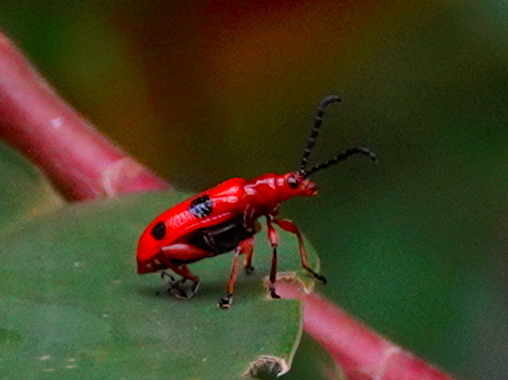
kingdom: Animalia
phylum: Arthropoda
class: Insecta
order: Coleoptera
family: Chrysomelidae
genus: Lema
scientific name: Lema
